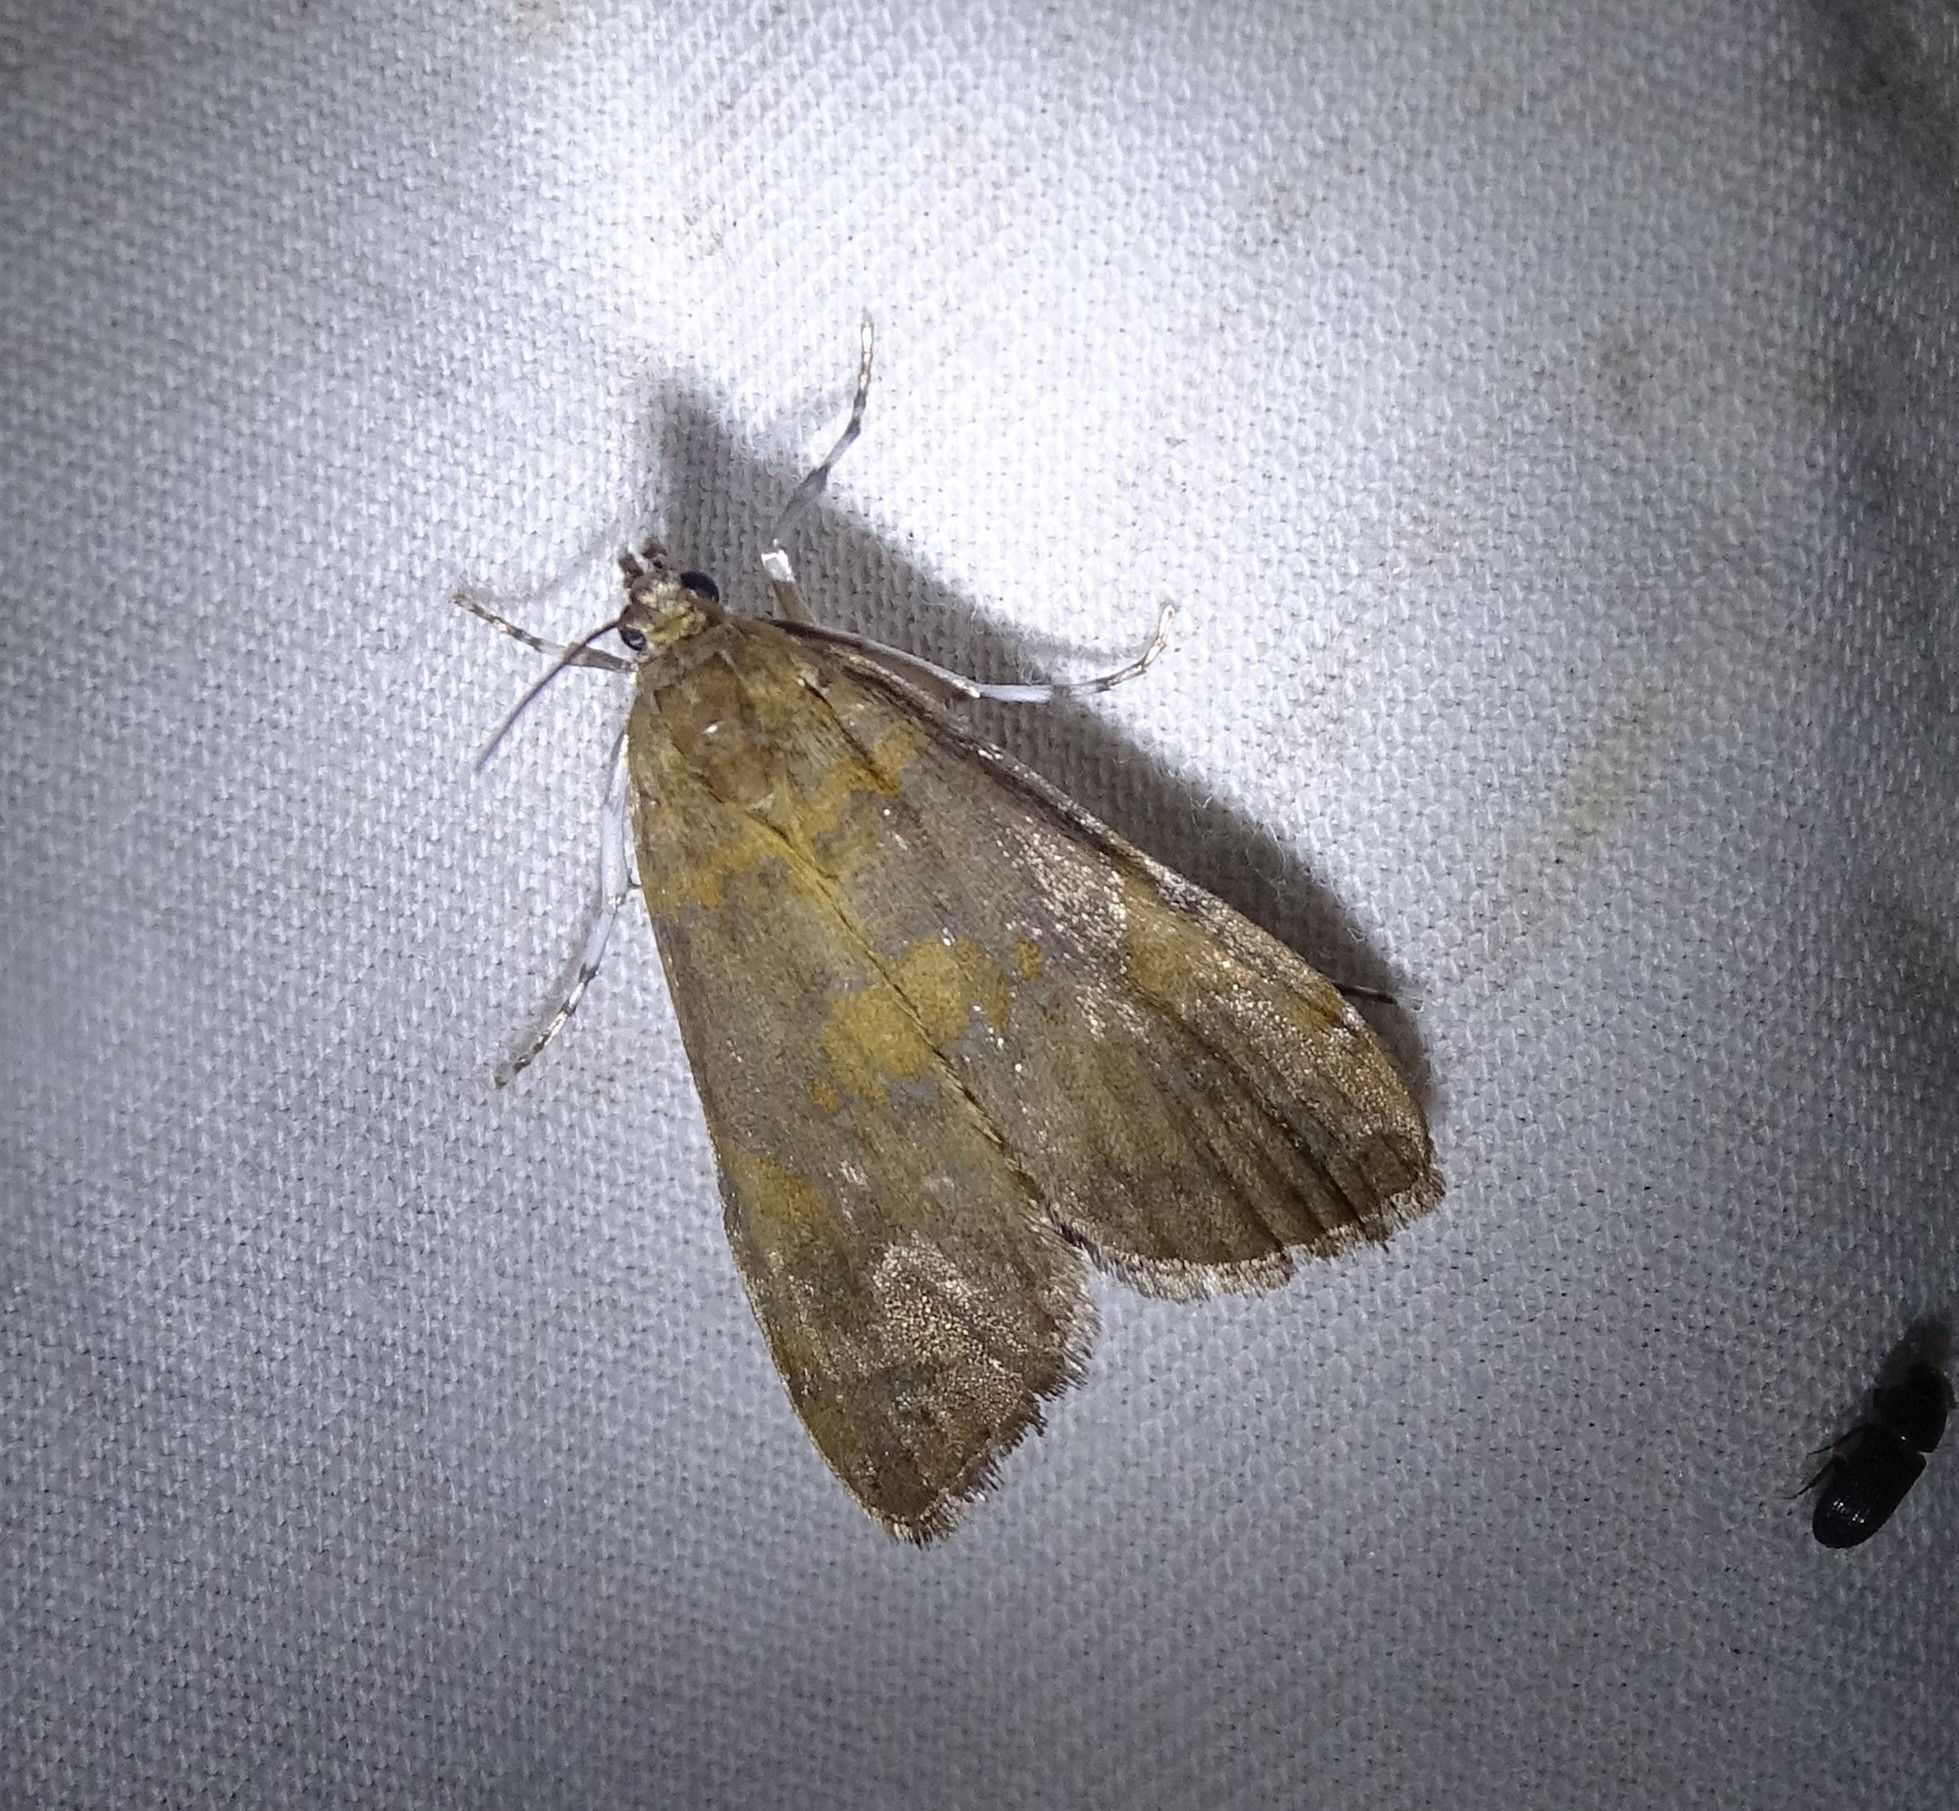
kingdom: Animalia
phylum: Arthropoda
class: Insecta
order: Lepidoptera
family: Crambidae
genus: Elophila
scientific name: Elophila gyralis
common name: Waterlily borer moth
